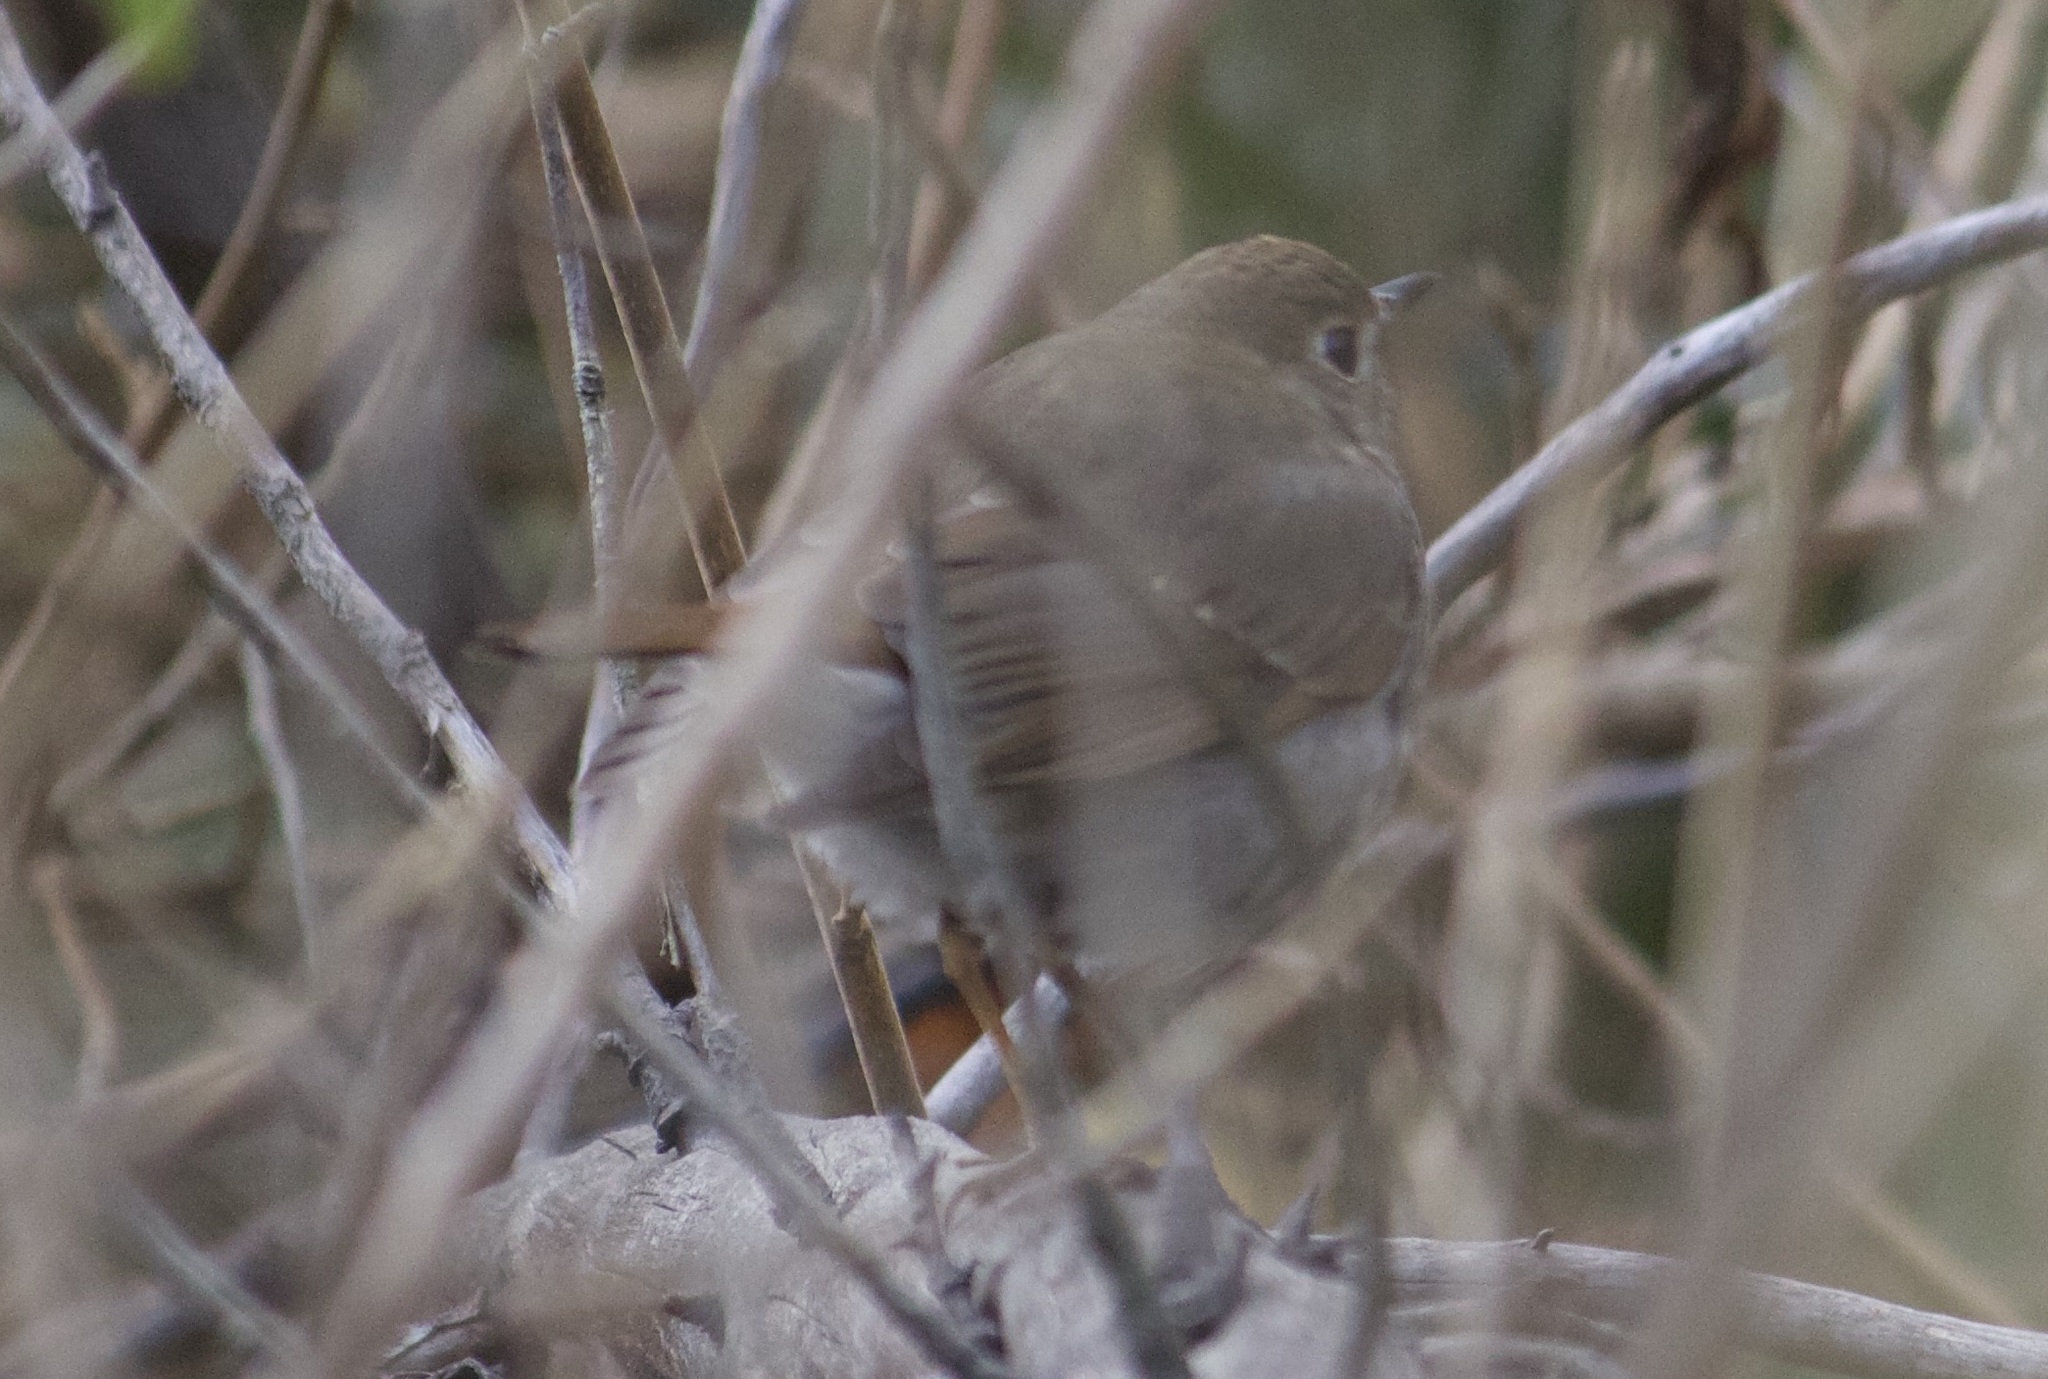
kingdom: Animalia
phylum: Chordata
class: Aves
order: Passeriformes
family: Turdidae
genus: Catharus
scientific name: Catharus guttatus
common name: Hermit thrush
